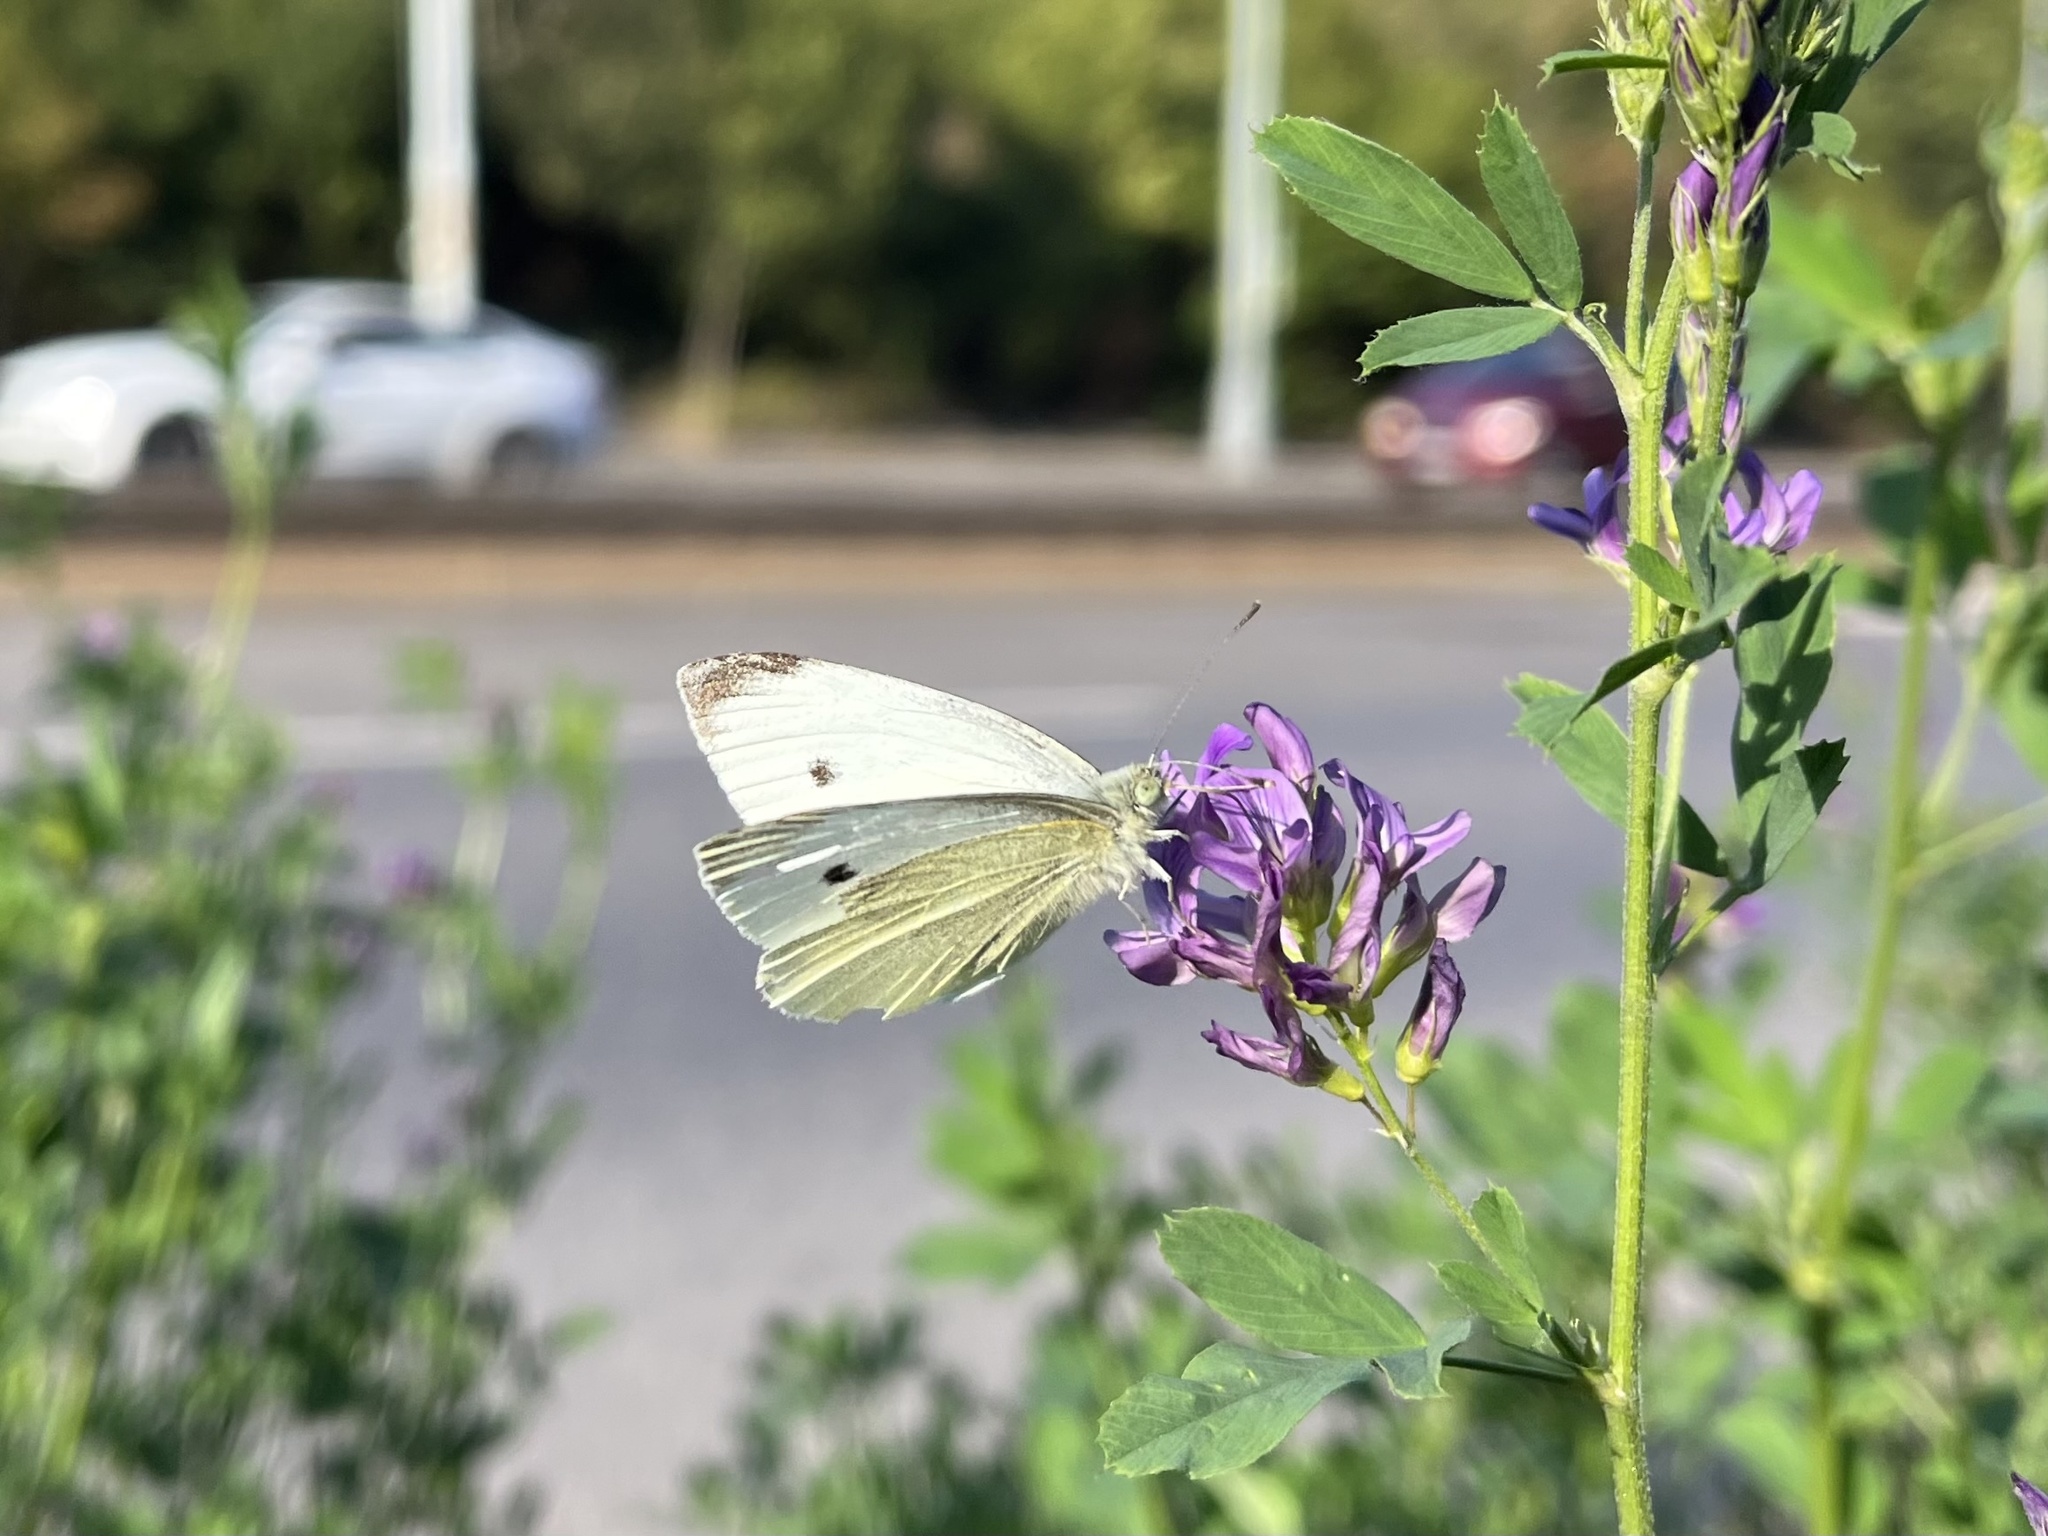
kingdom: Animalia
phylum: Arthropoda
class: Insecta
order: Lepidoptera
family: Pieridae
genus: Pieris
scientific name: Pieris rapae
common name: Small white
